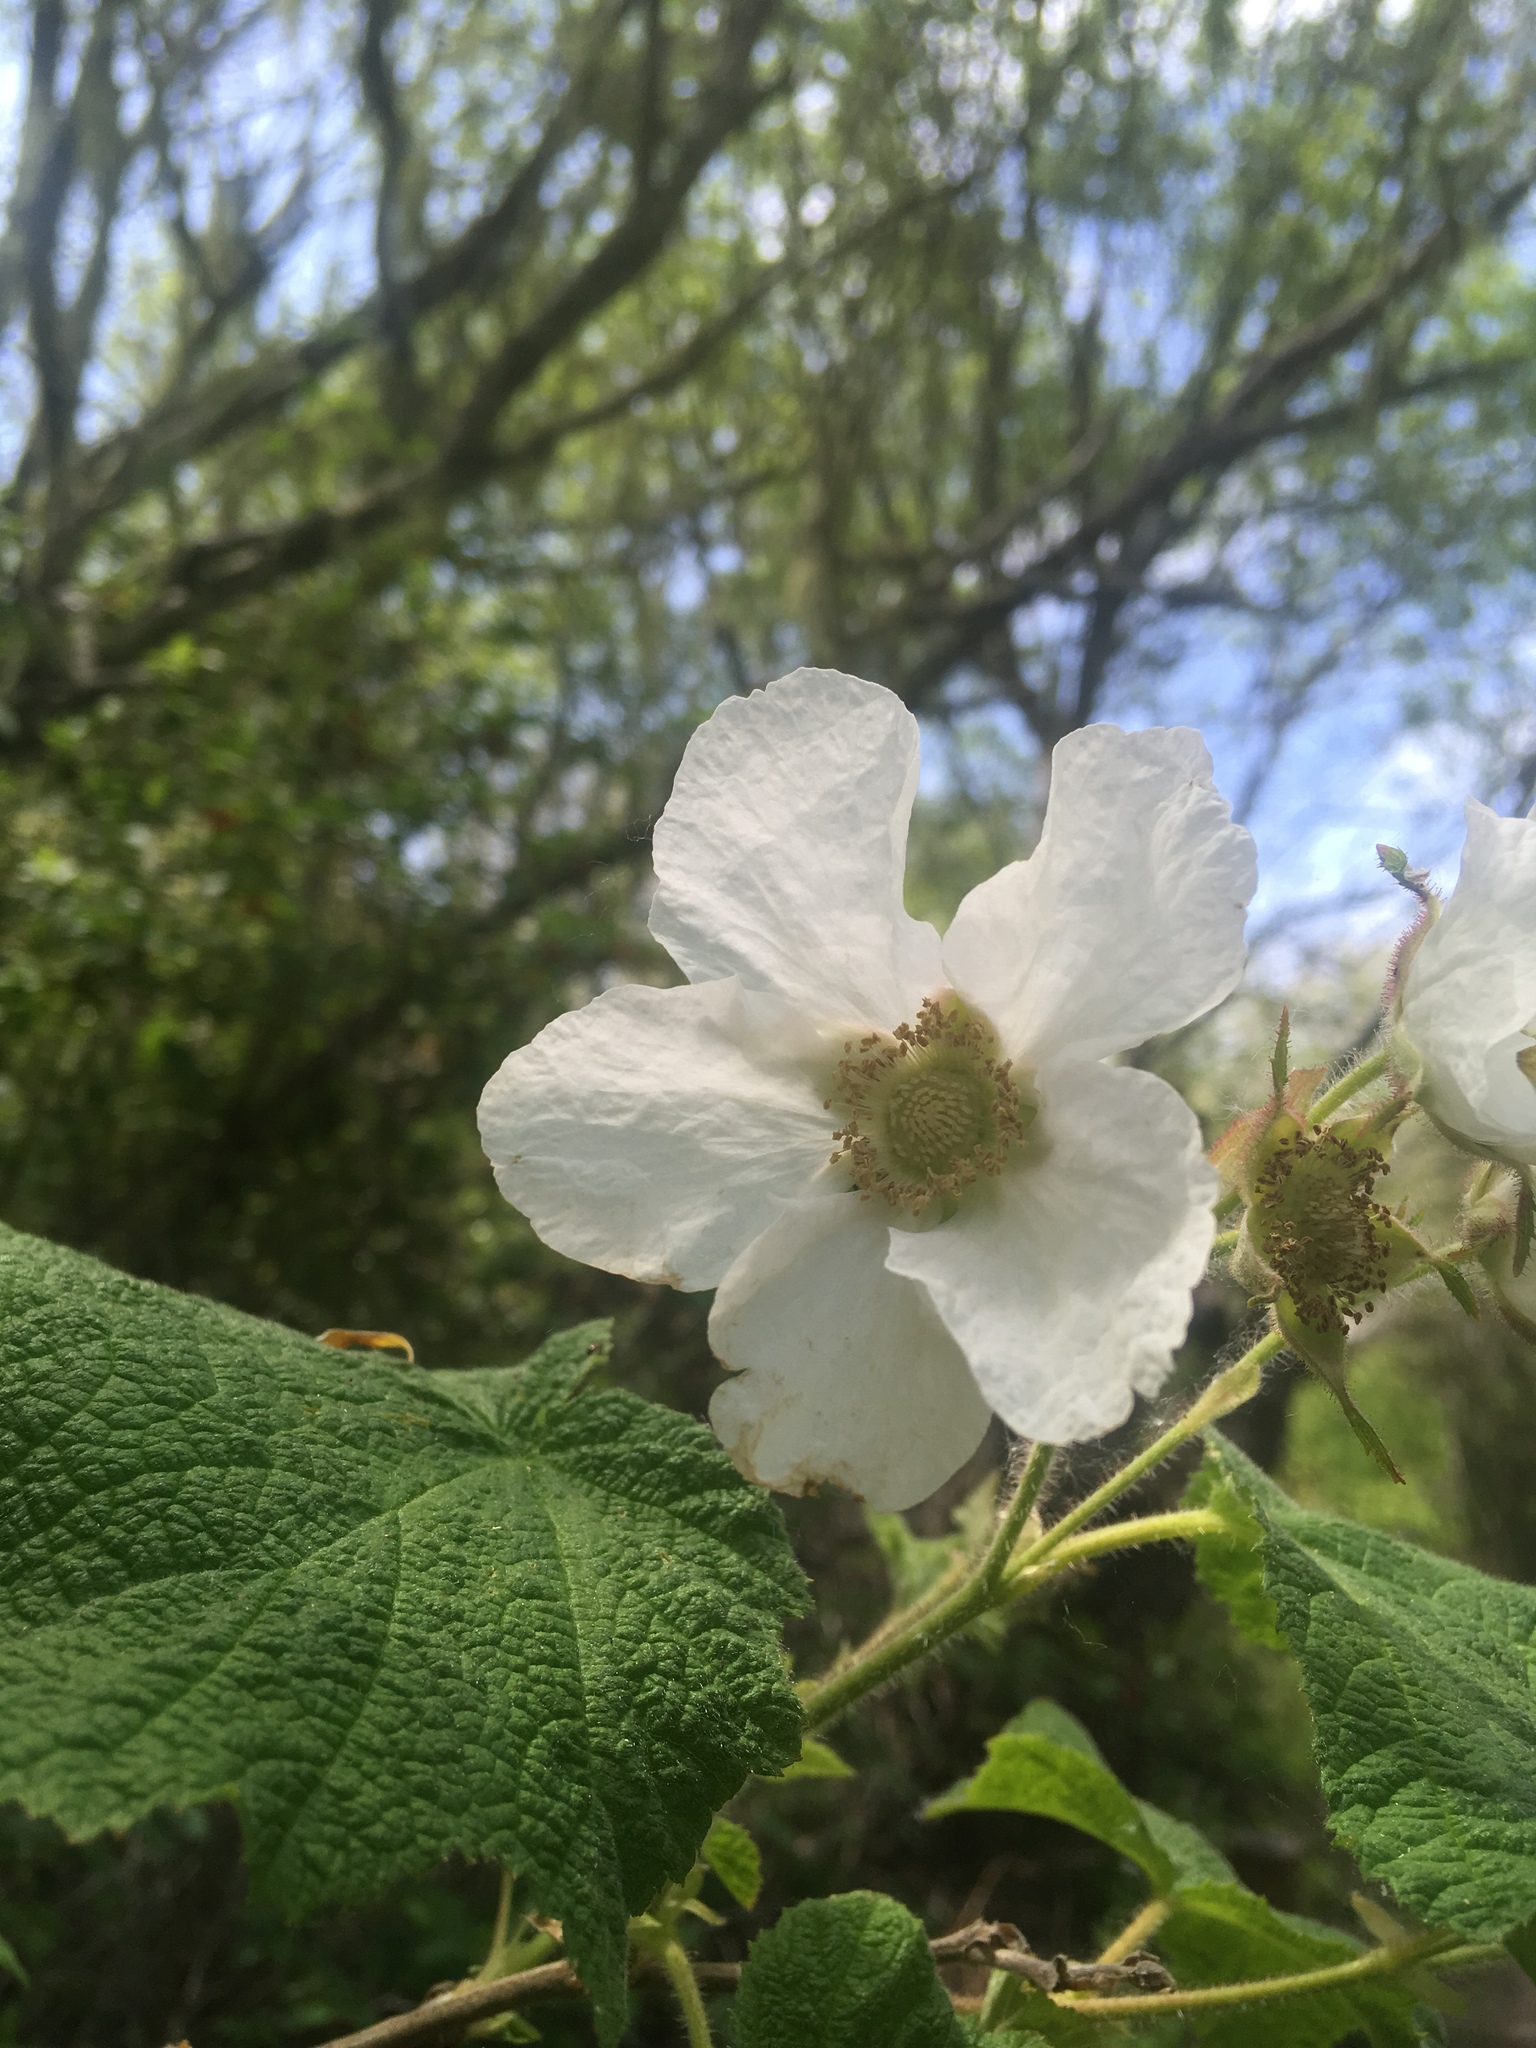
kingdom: Plantae
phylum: Tracheophyta
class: Magnoliopsida
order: Rosales
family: Rosaceae
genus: Rubus
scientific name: Rubus parviflorus
